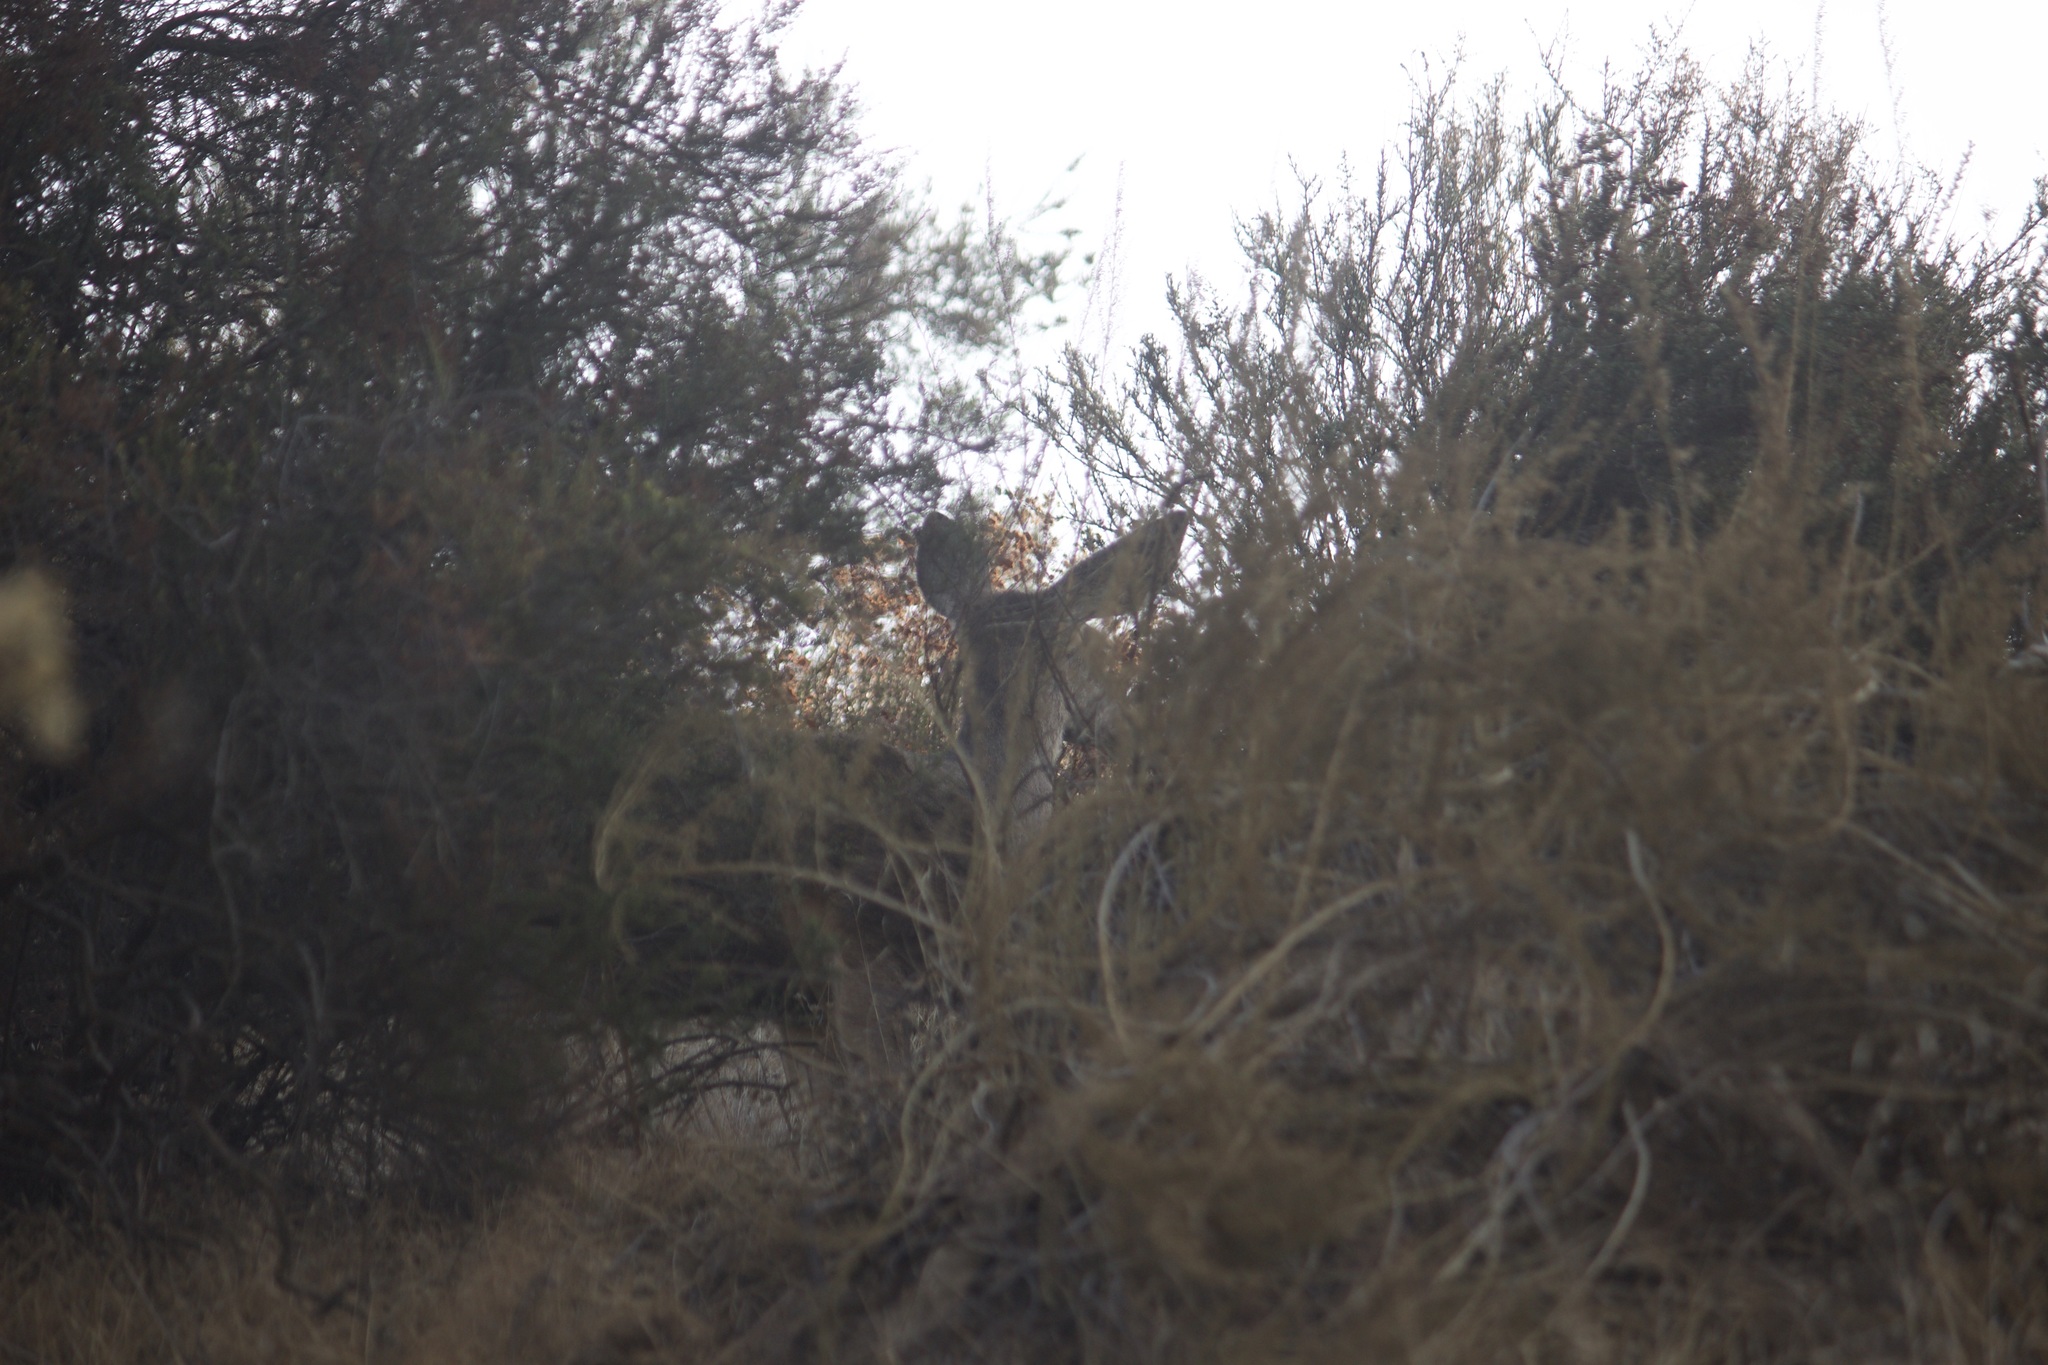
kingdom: Animalia
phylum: Chordata
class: Mammalia
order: Artiodactyla
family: Cervidae
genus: Odocoileus
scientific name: Odocoileus hemionus
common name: Mule deer
